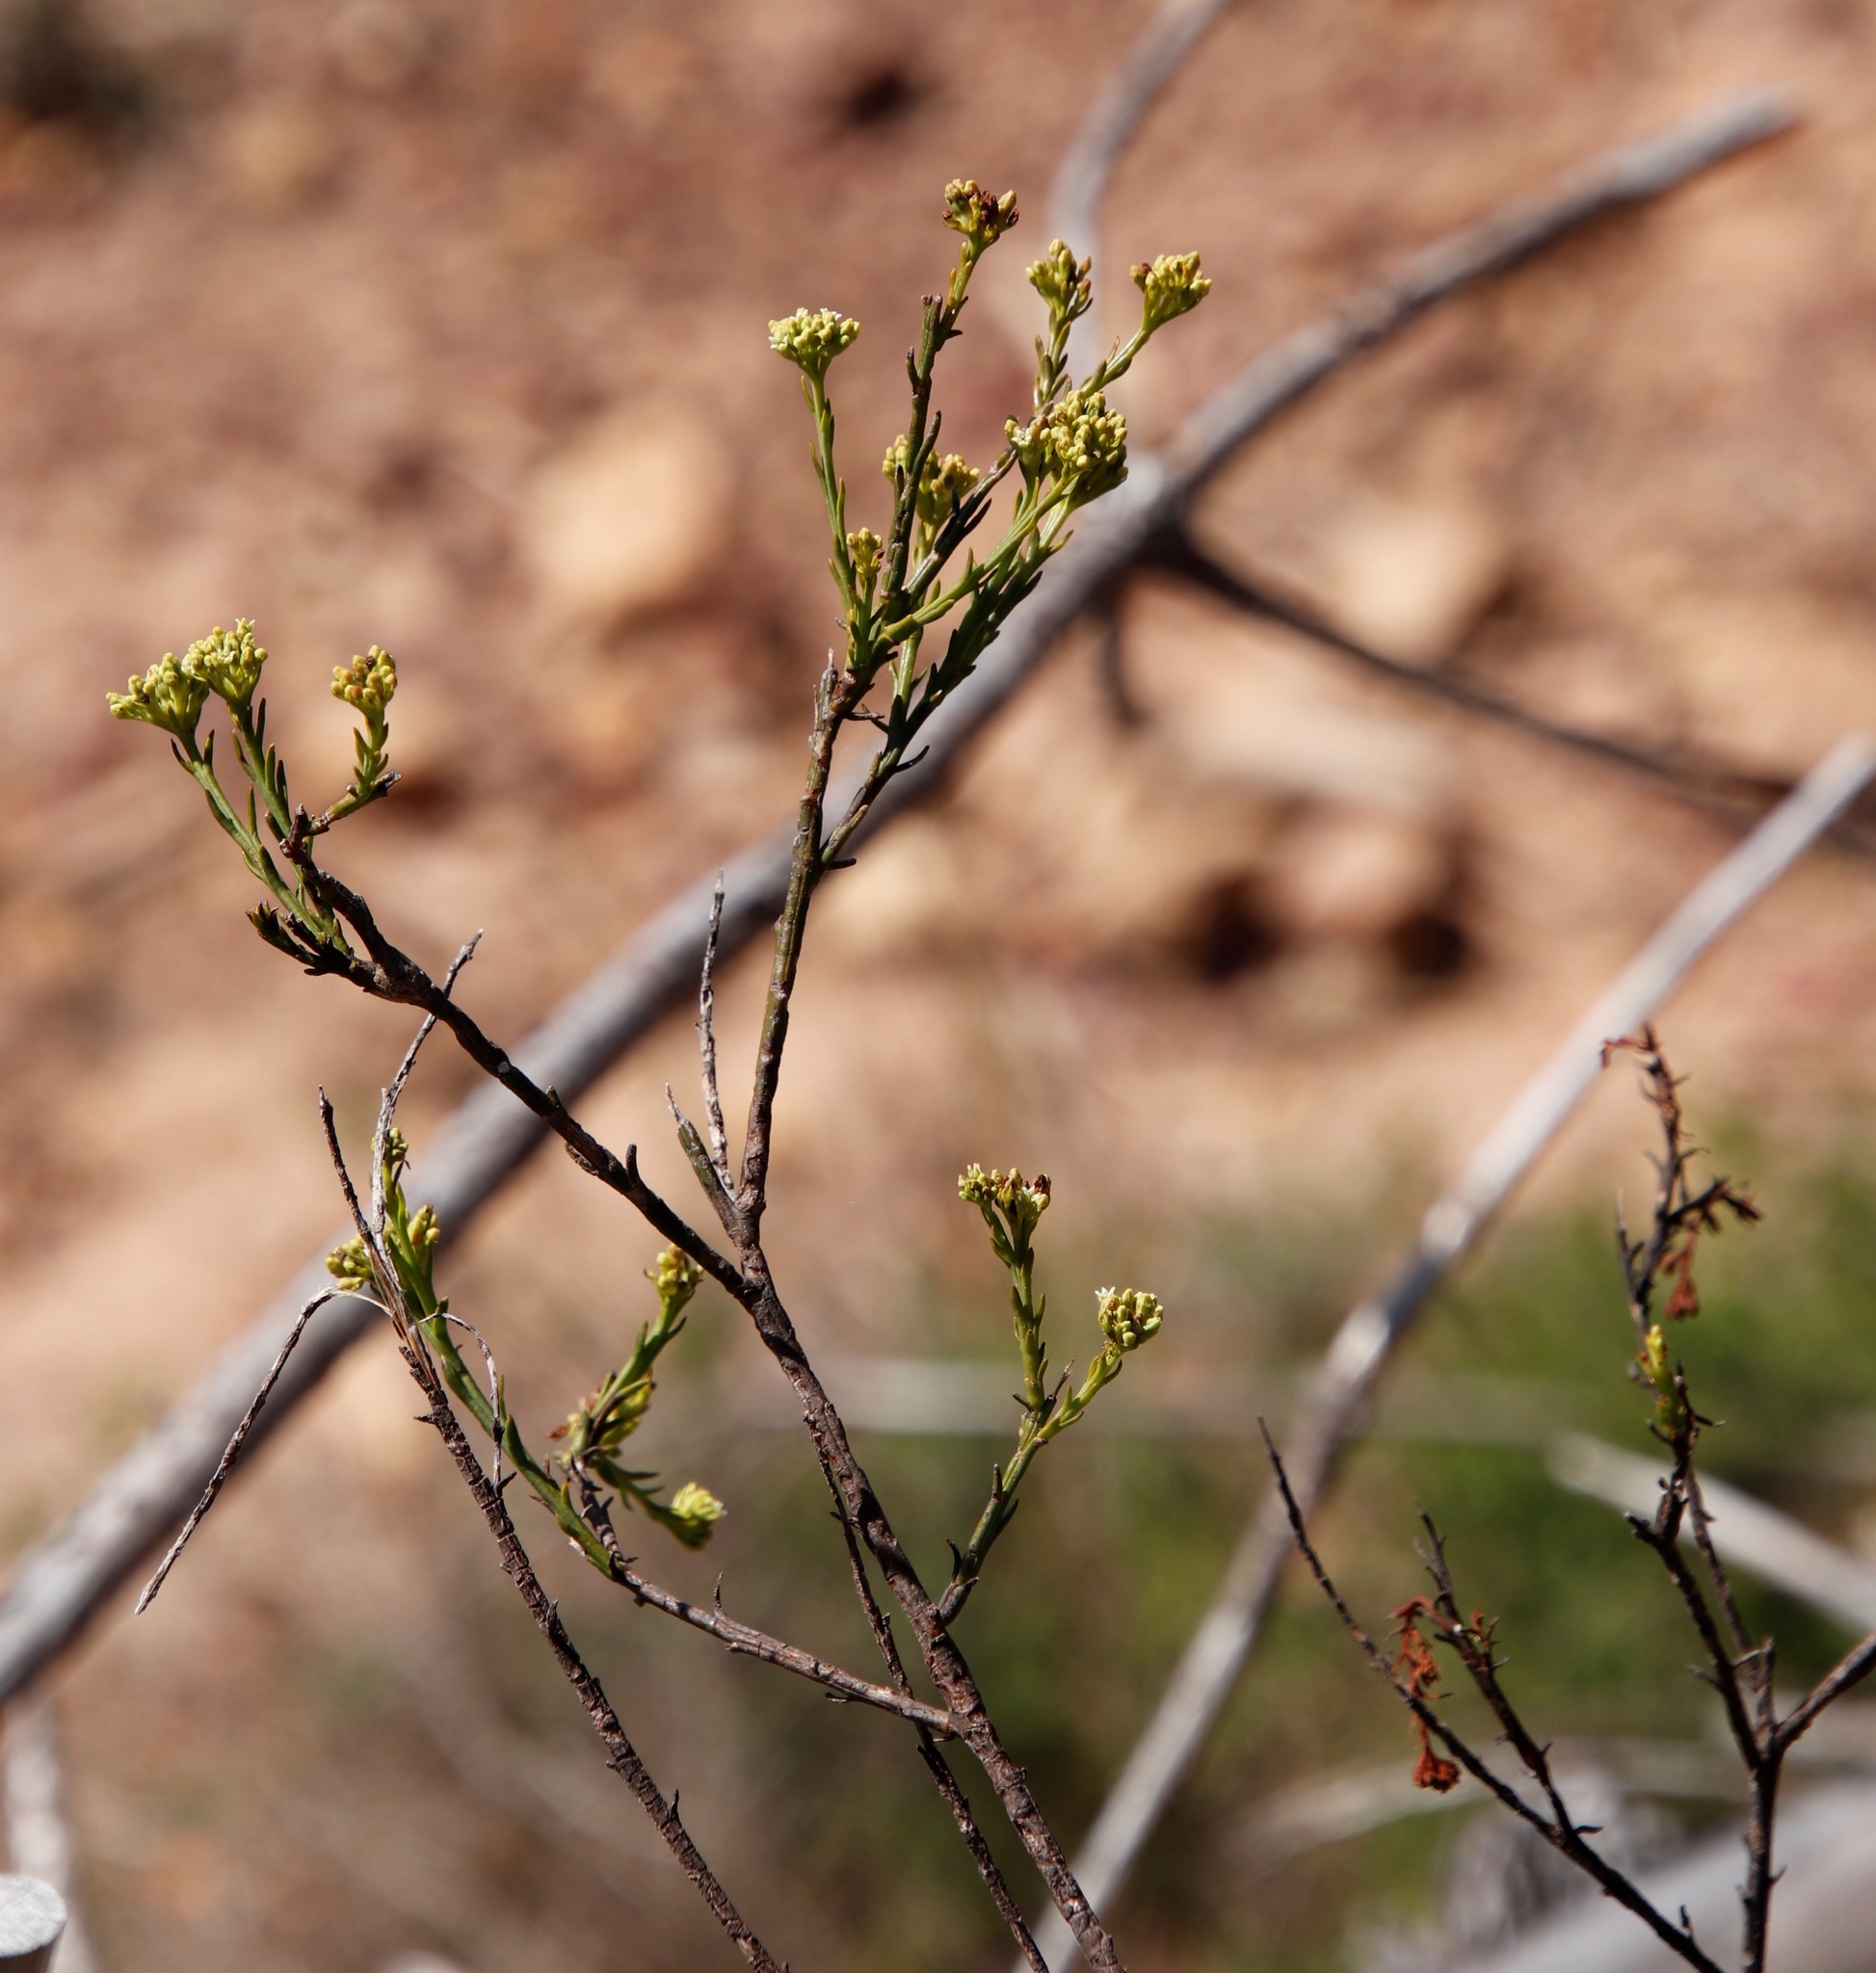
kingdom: Plantae
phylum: Tracheophyta
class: Magnoliopsida
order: Santalales
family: Thesiaceae
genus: Thesium
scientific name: Thesium strictum
